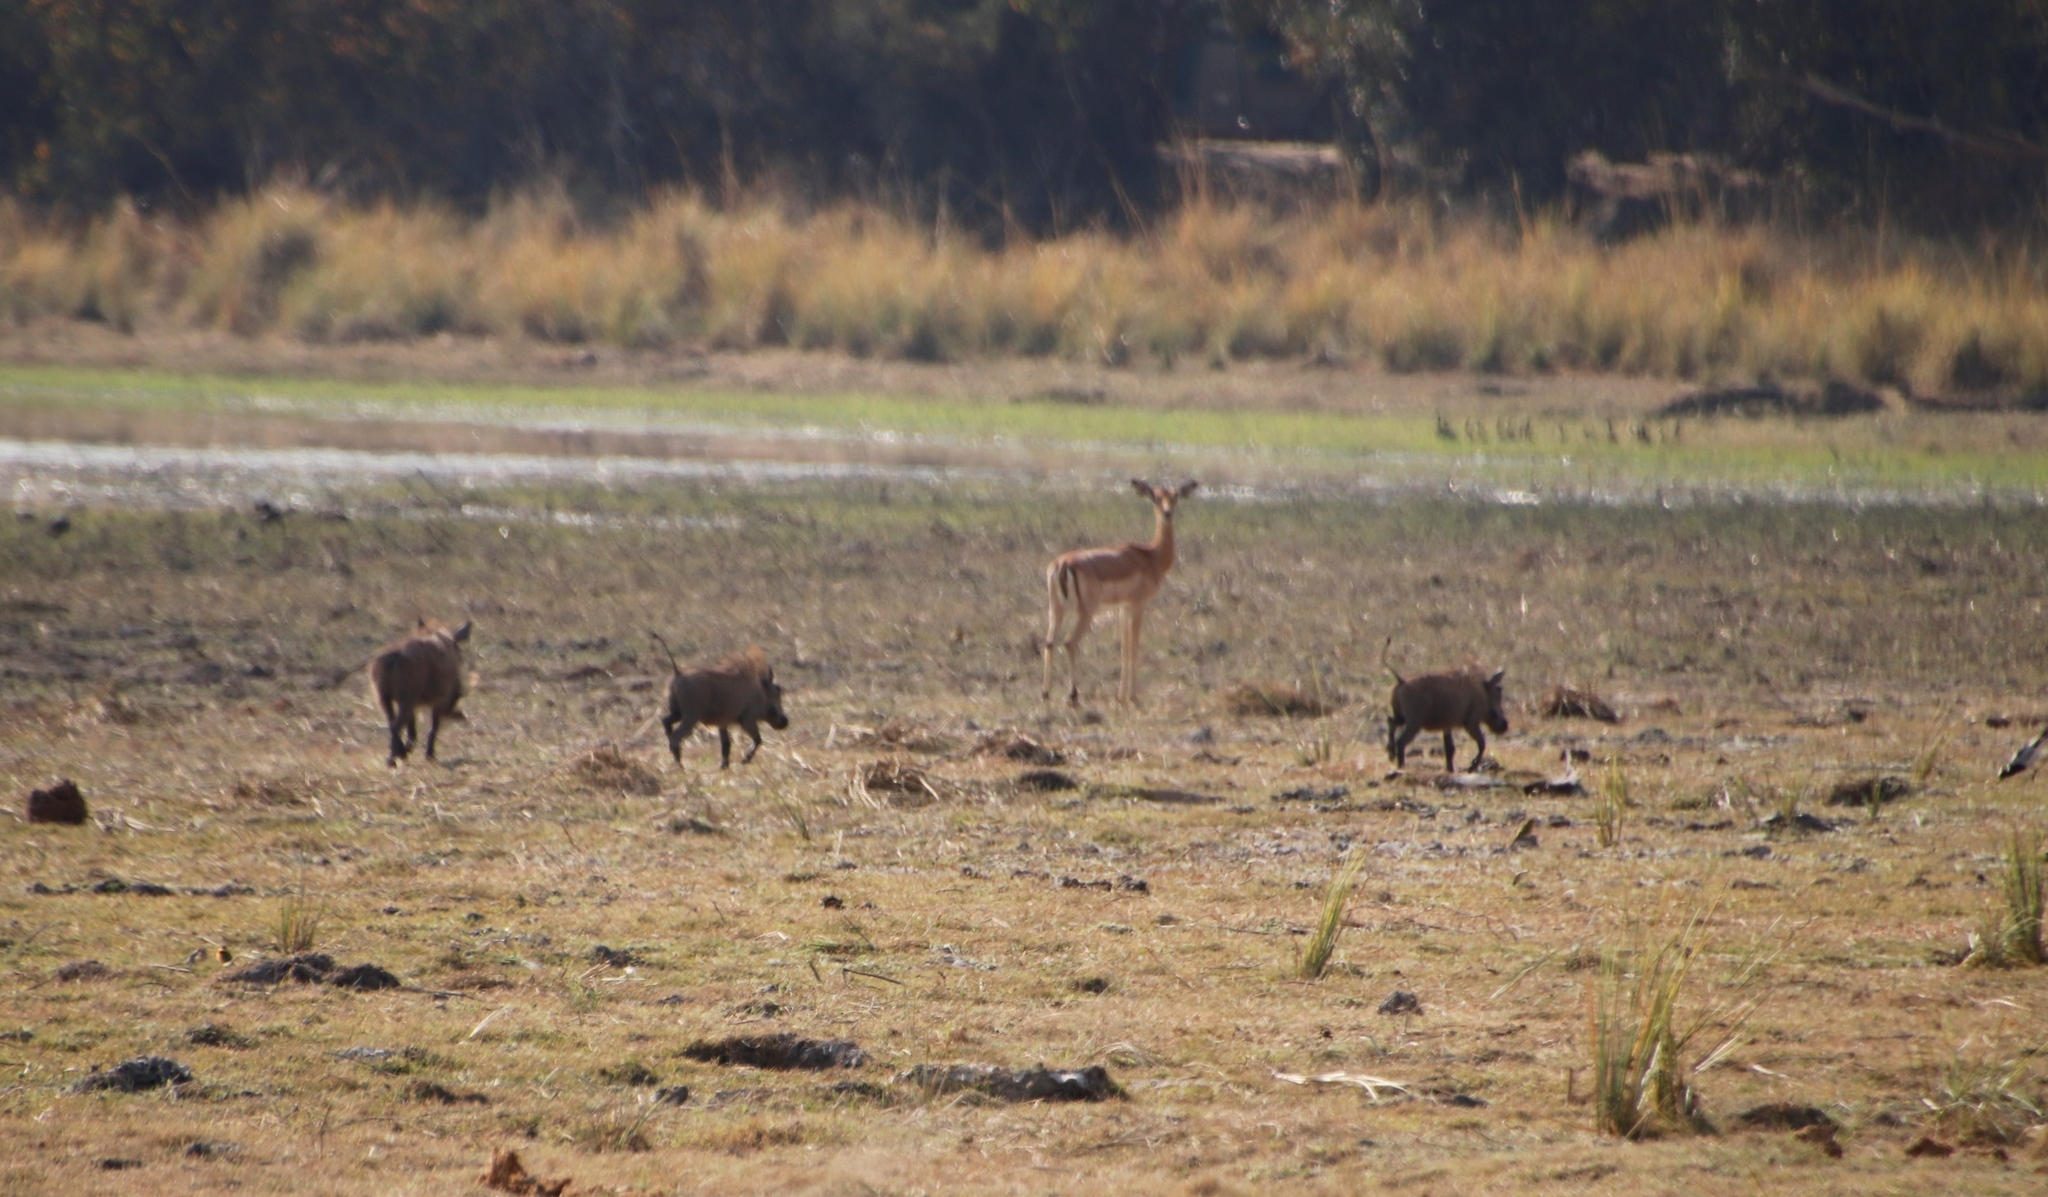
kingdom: Animalia
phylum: Chordata
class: Mammalia
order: Artiodactyla
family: Suidae
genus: Phacochoerus
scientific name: Phacochoerus africanus
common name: Common warthog
